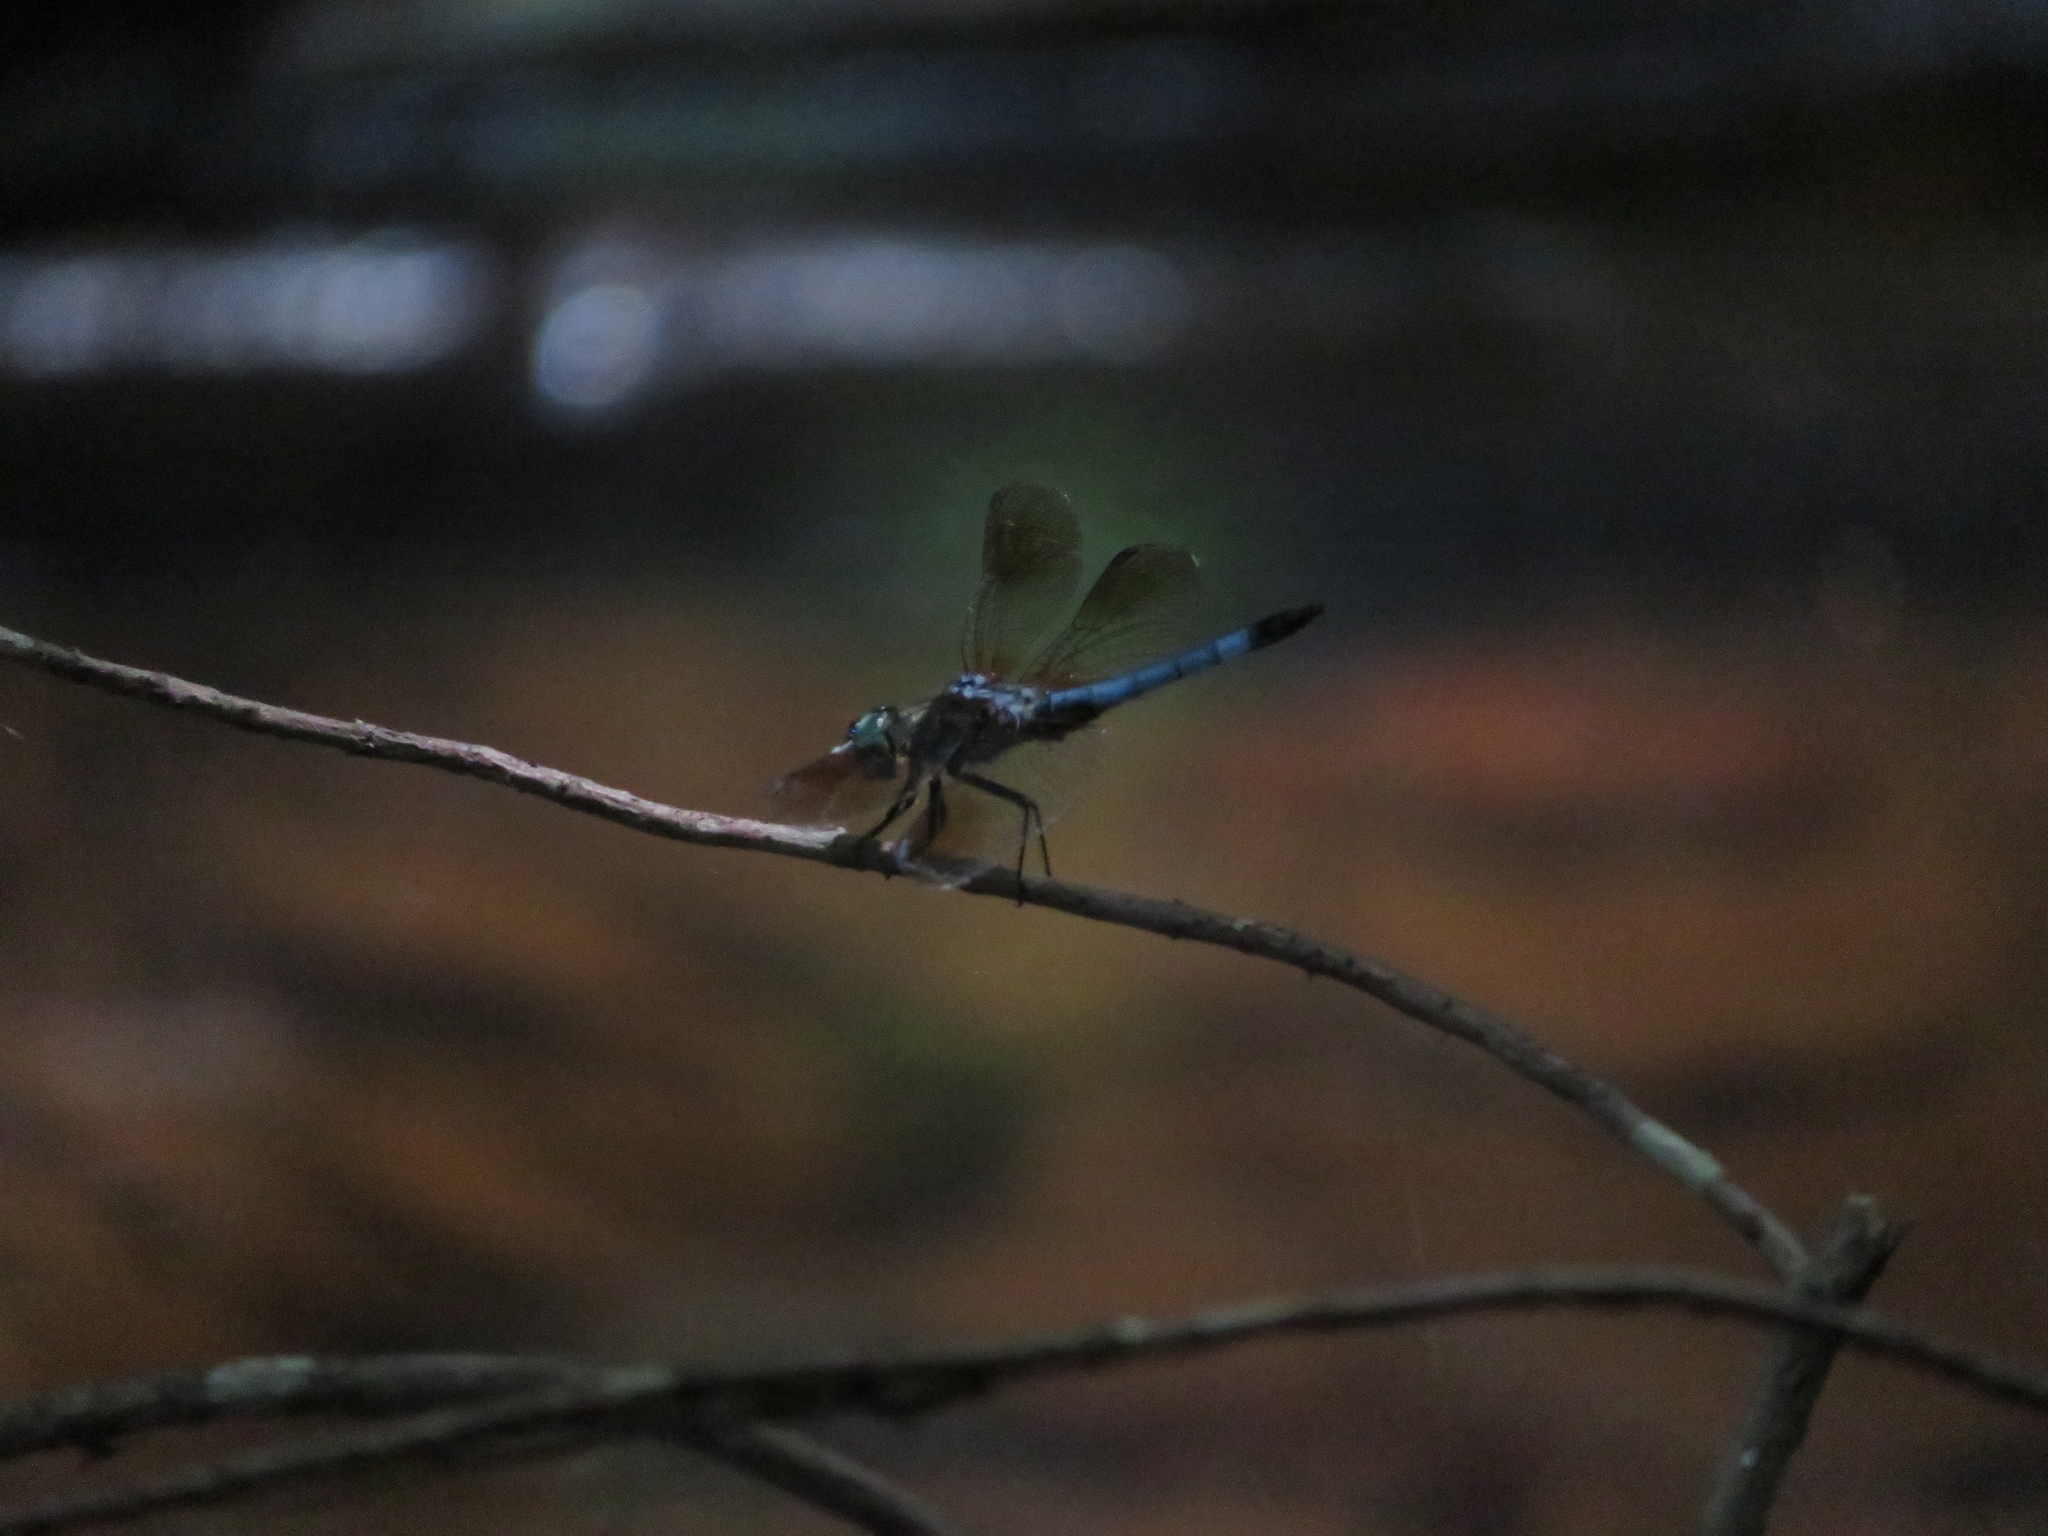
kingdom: Animalia
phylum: Arthropoda
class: Insecta
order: Odonata
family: Libellulidae
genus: Pachydiplax
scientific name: Pachydiplax longipennis
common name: Blue dasher
